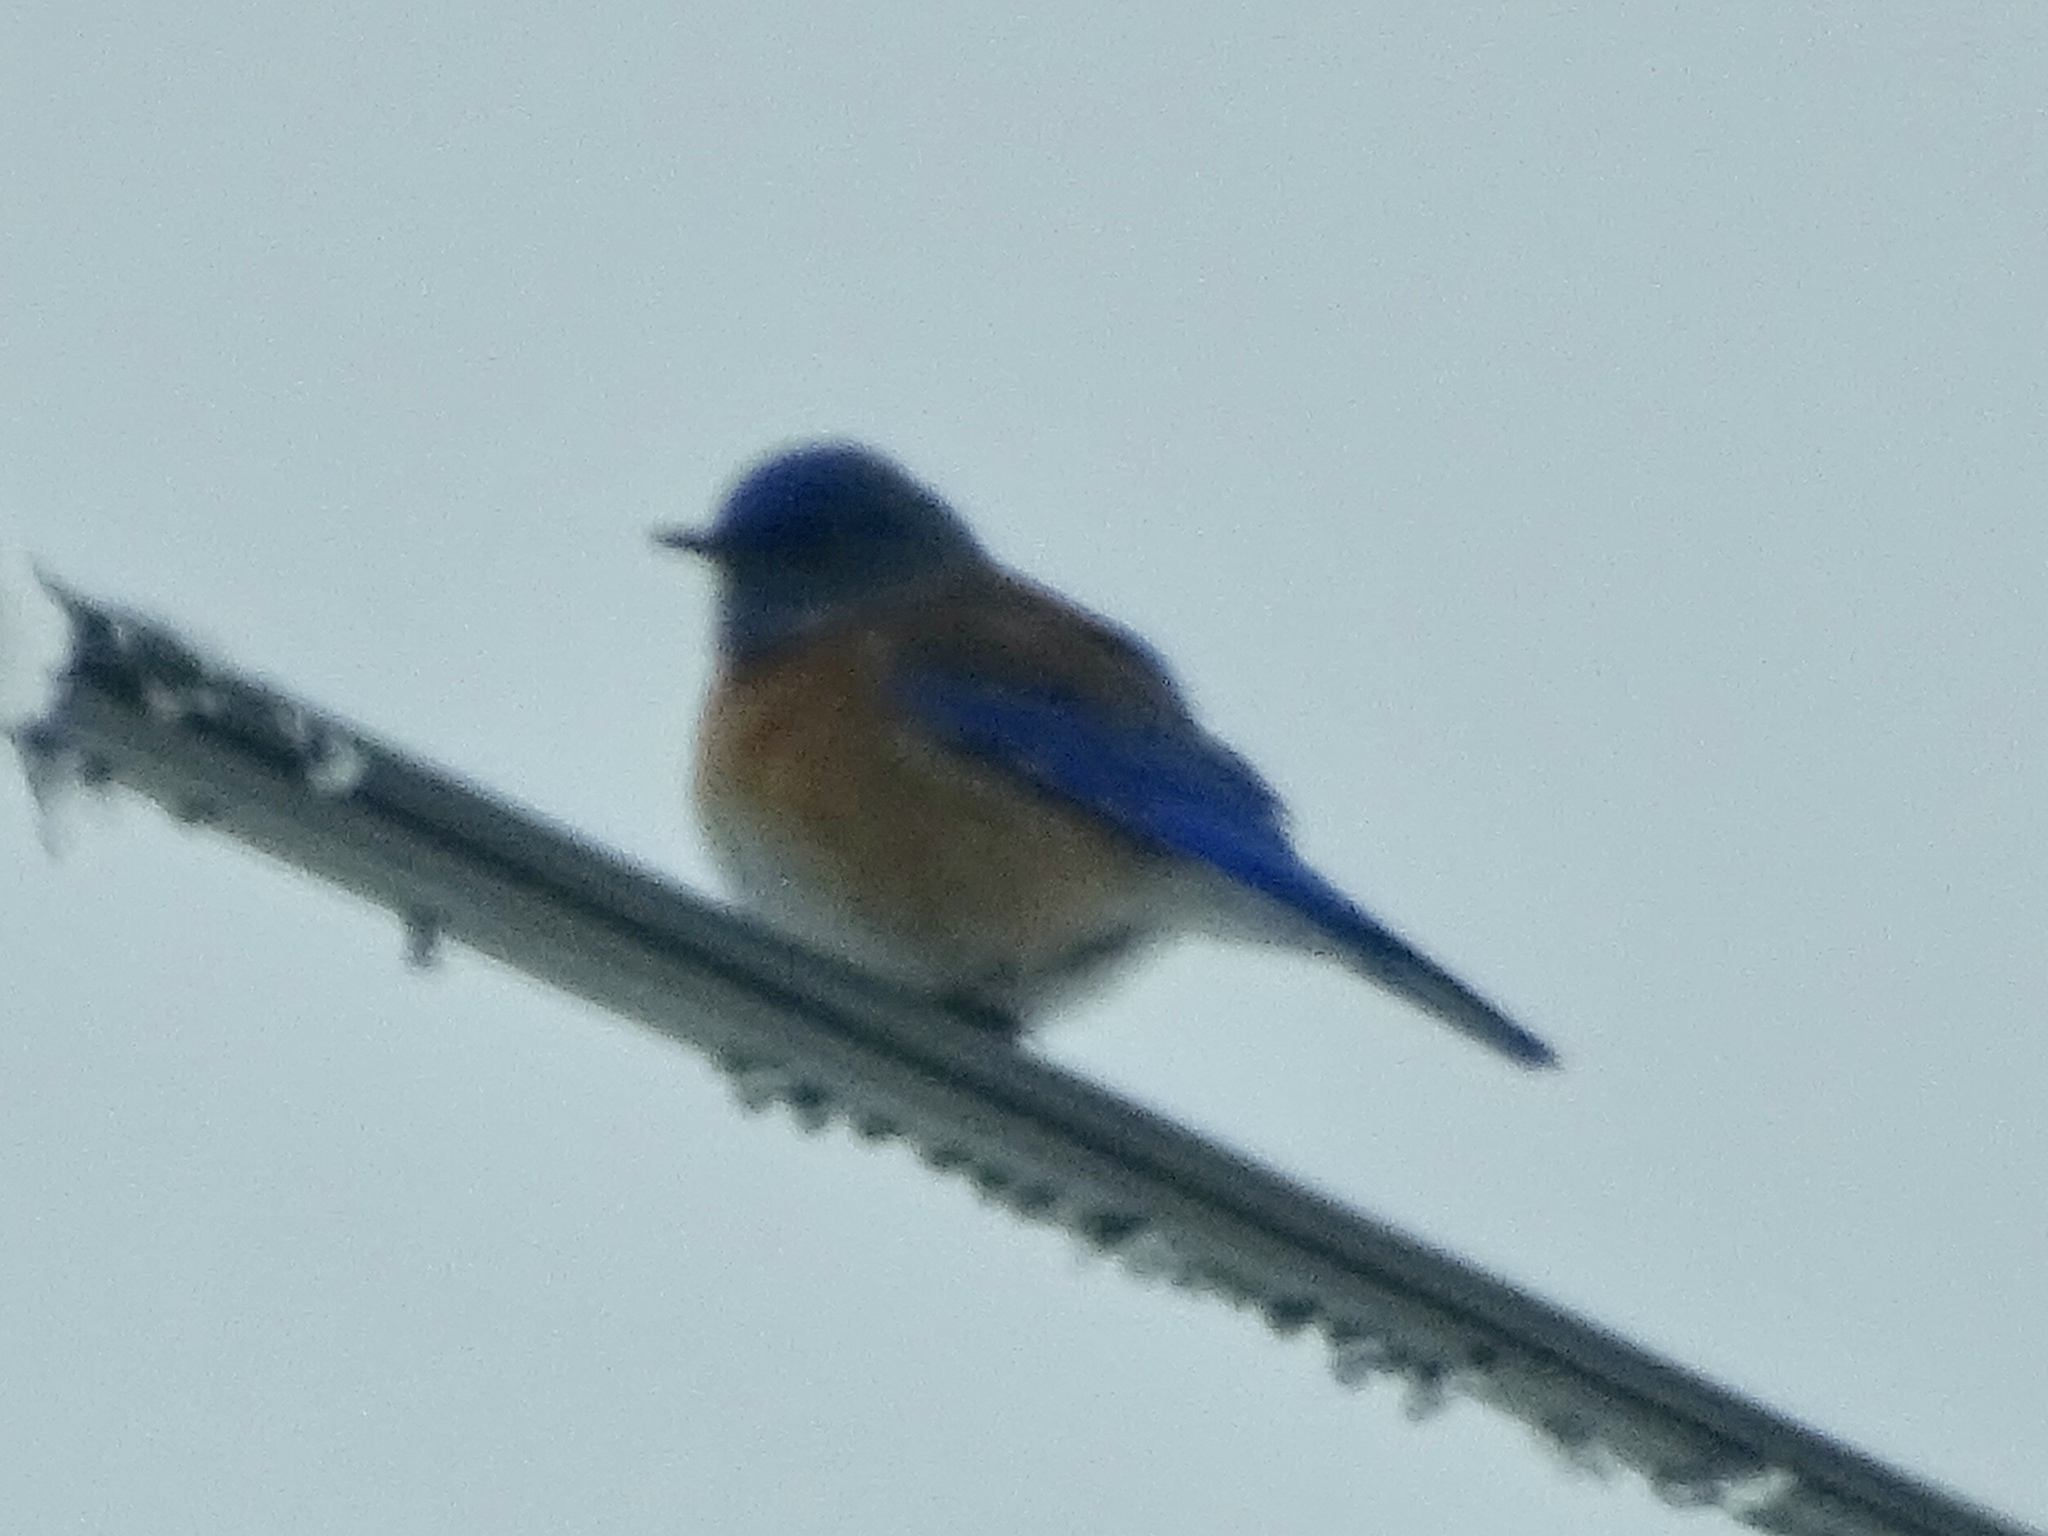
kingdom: Animalia
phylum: Chordata
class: Aves
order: Passeriformes
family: Turdidae
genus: Sialia
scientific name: Sialia mexicana
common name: Western bluebird
